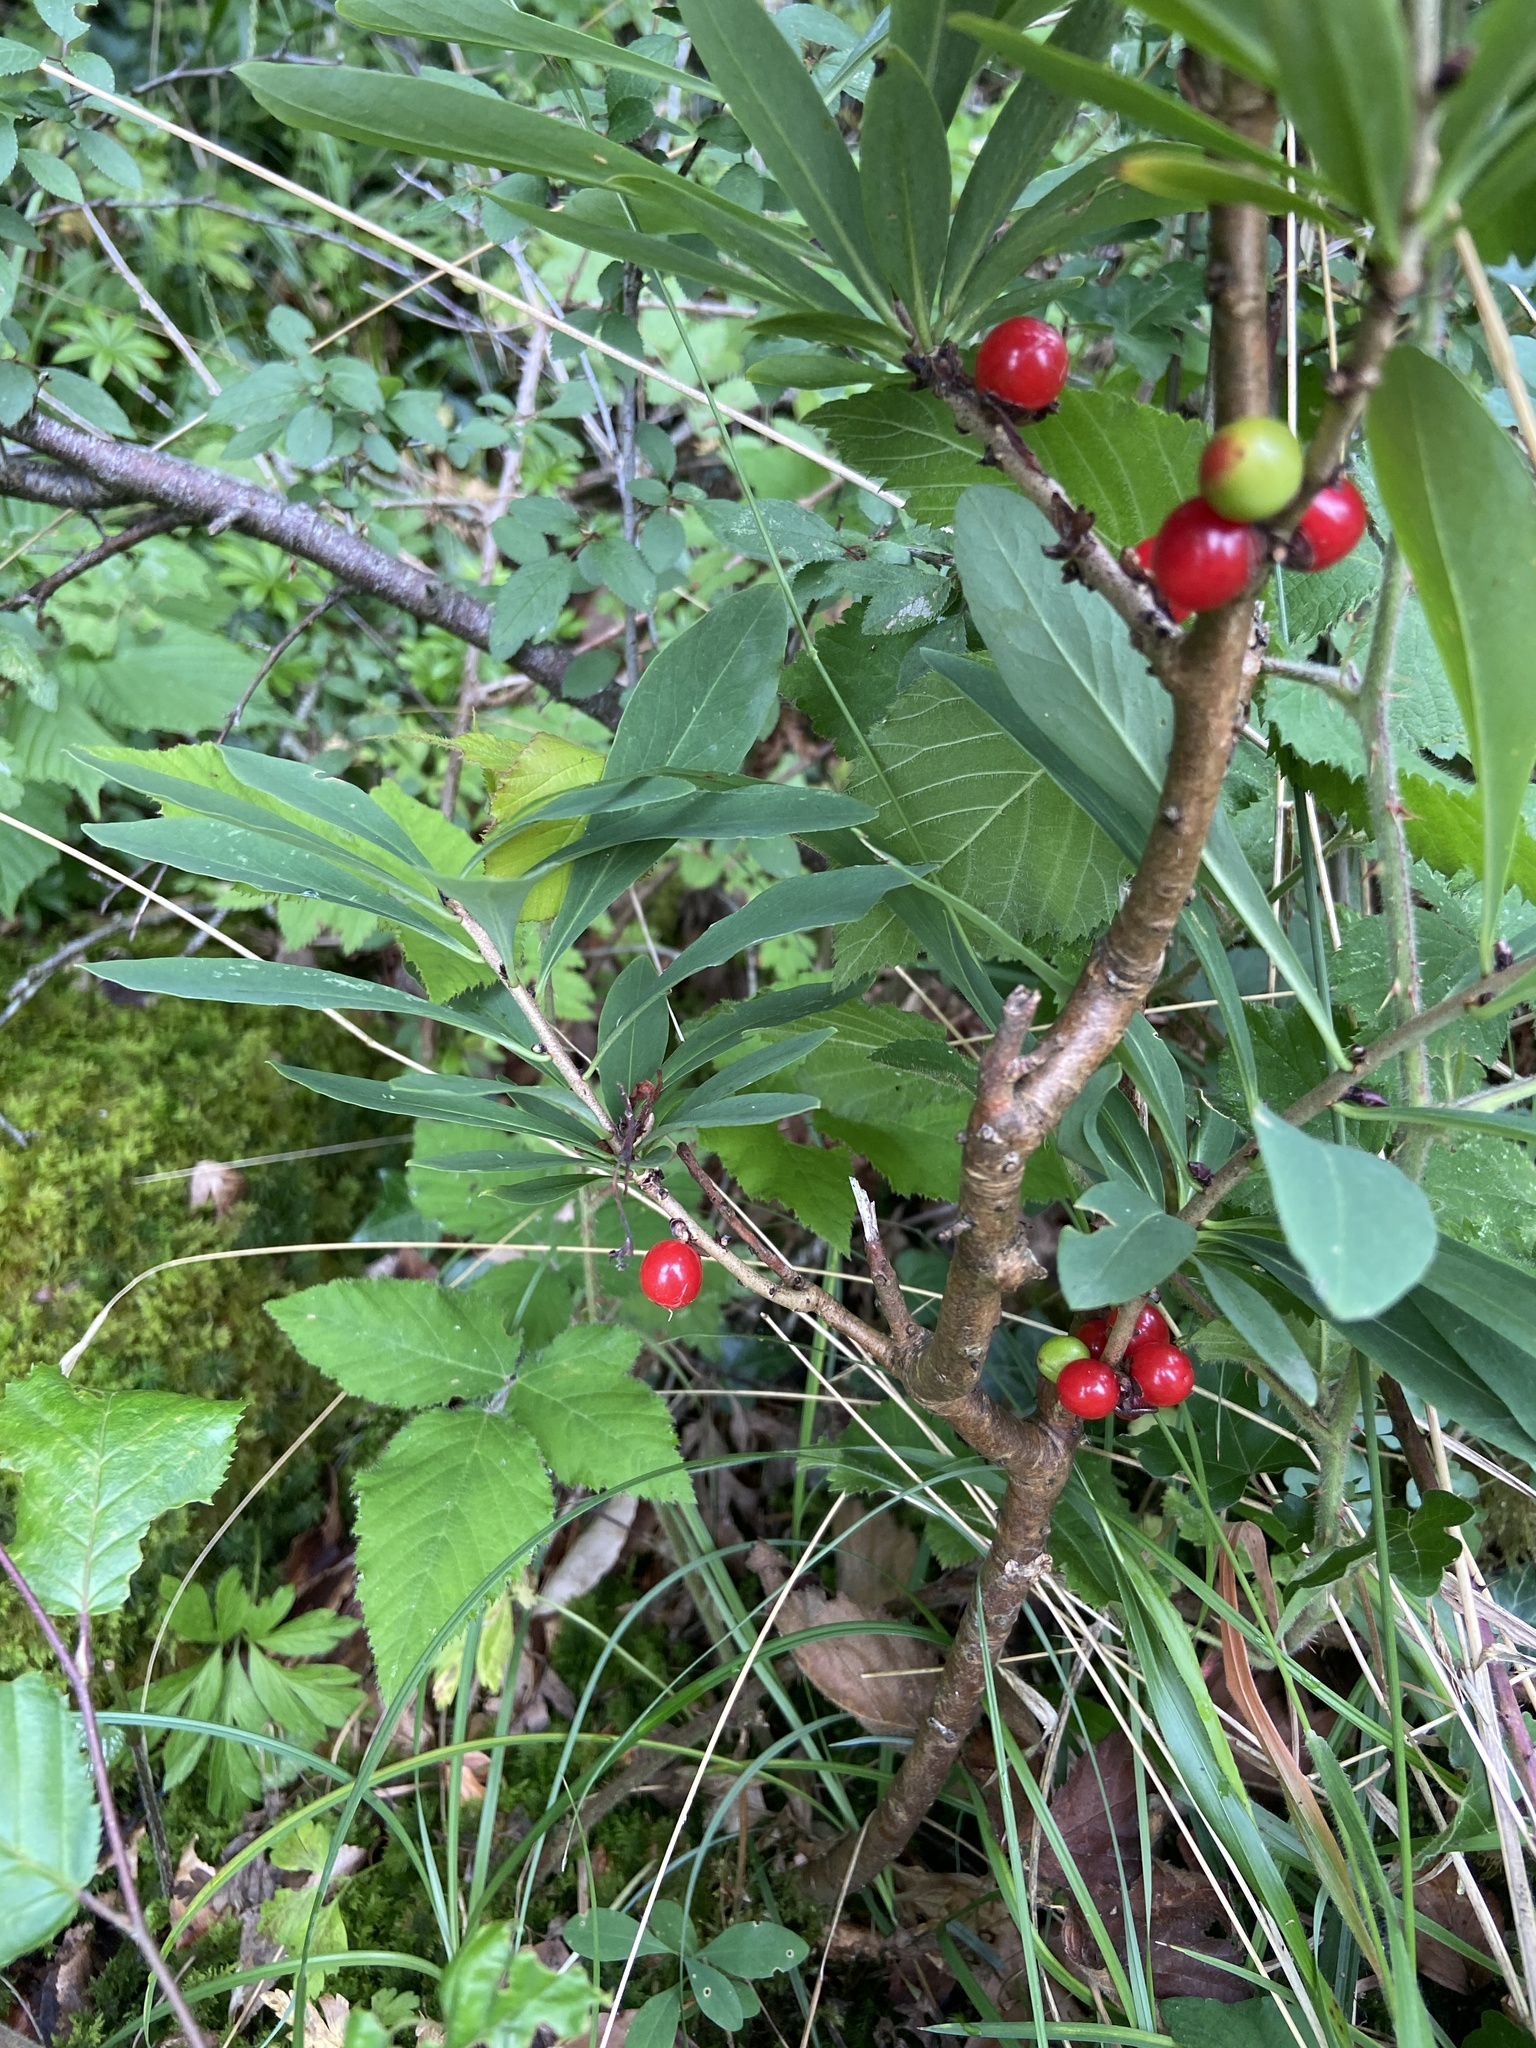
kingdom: Plantae
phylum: Tracheophyta
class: Magnoliopsida
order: Malvales
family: Thymelaeaceae
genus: Daphne
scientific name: Daphne mezereum
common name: Mezereon
